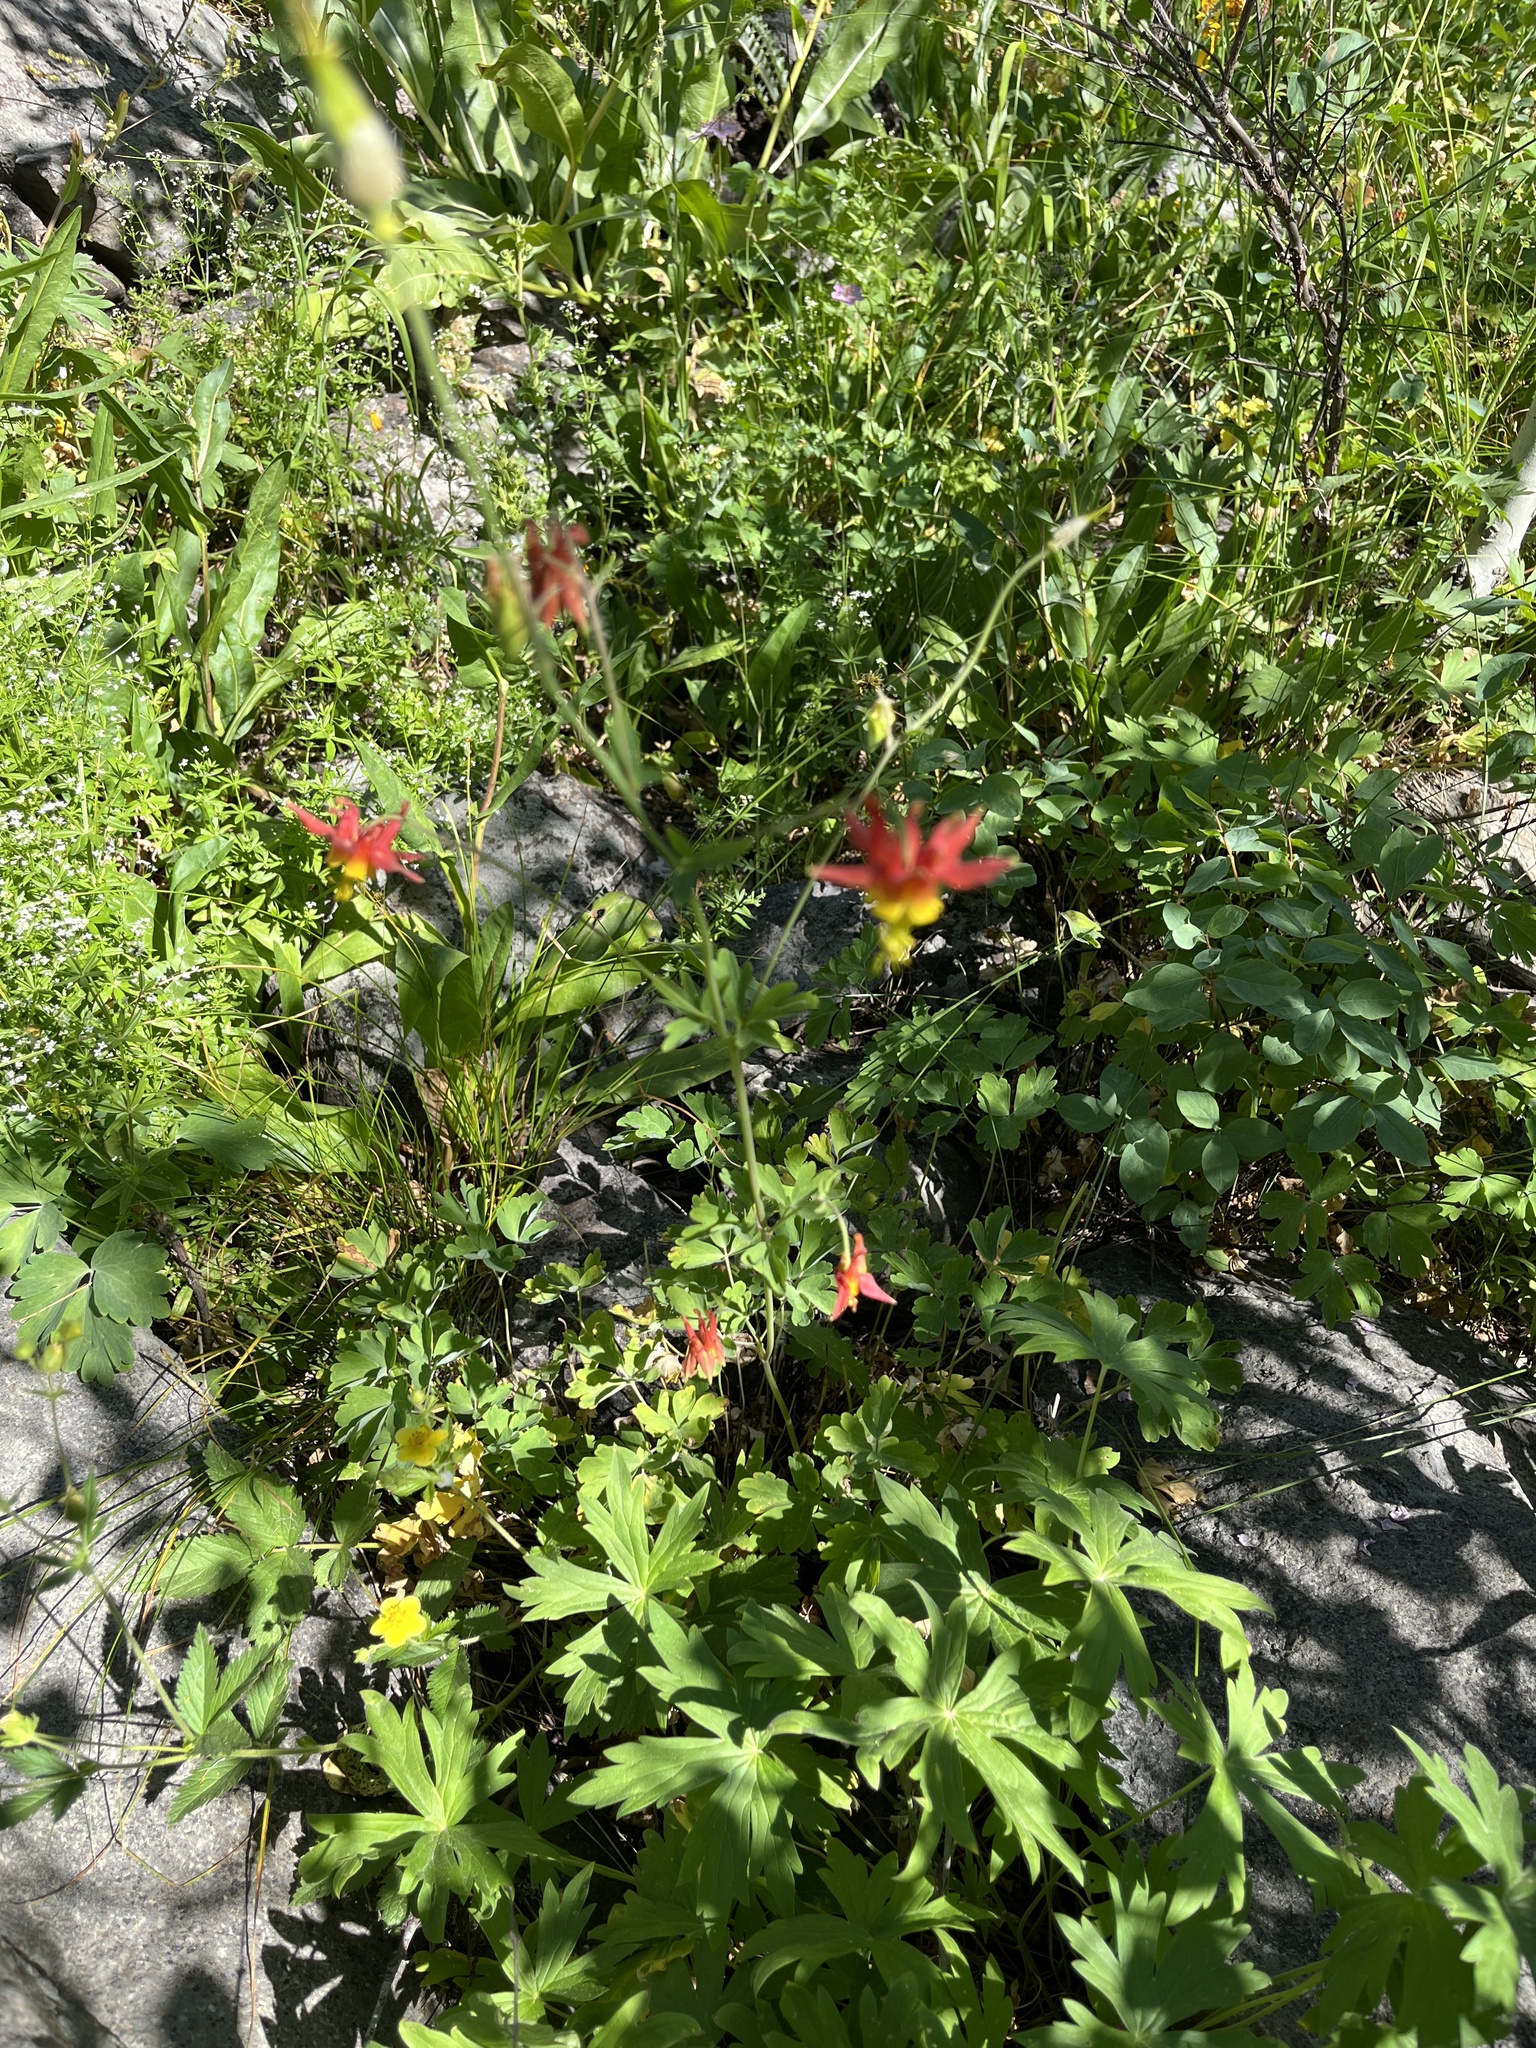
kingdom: Plantae
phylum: Tracheophyta
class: Magnoliopsida
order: Ranunculales
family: Ranunculaceae
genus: Aquilegia
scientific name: Aquilegia formosa
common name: Sitka columbine
